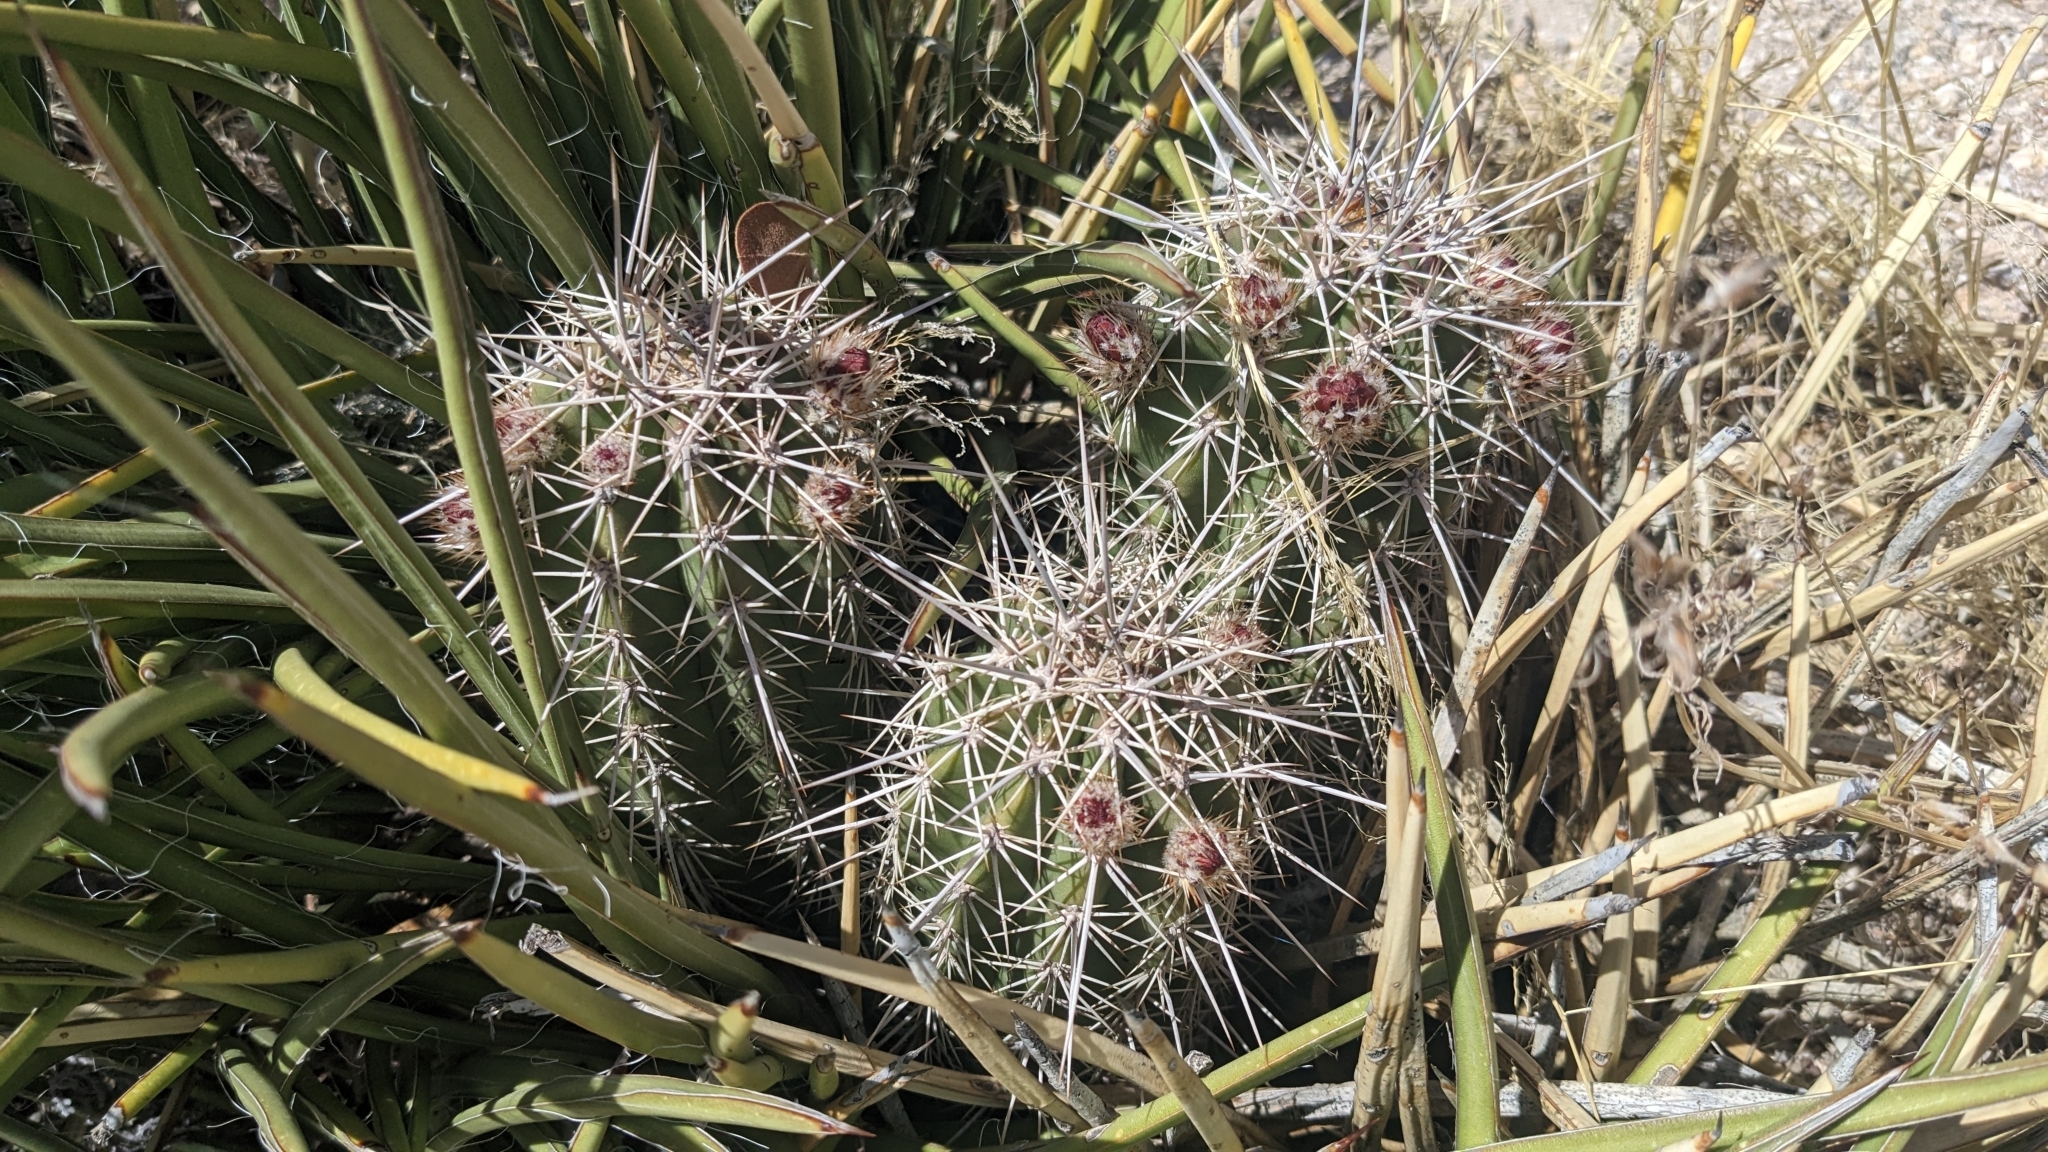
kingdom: Plantae
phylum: Tracheophyta
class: Magnoliopsida
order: Caryophyllales
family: Cactaceae
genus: Echinocereus
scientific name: Echinocereus coccineus
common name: Scarlet hedgehog cactus
